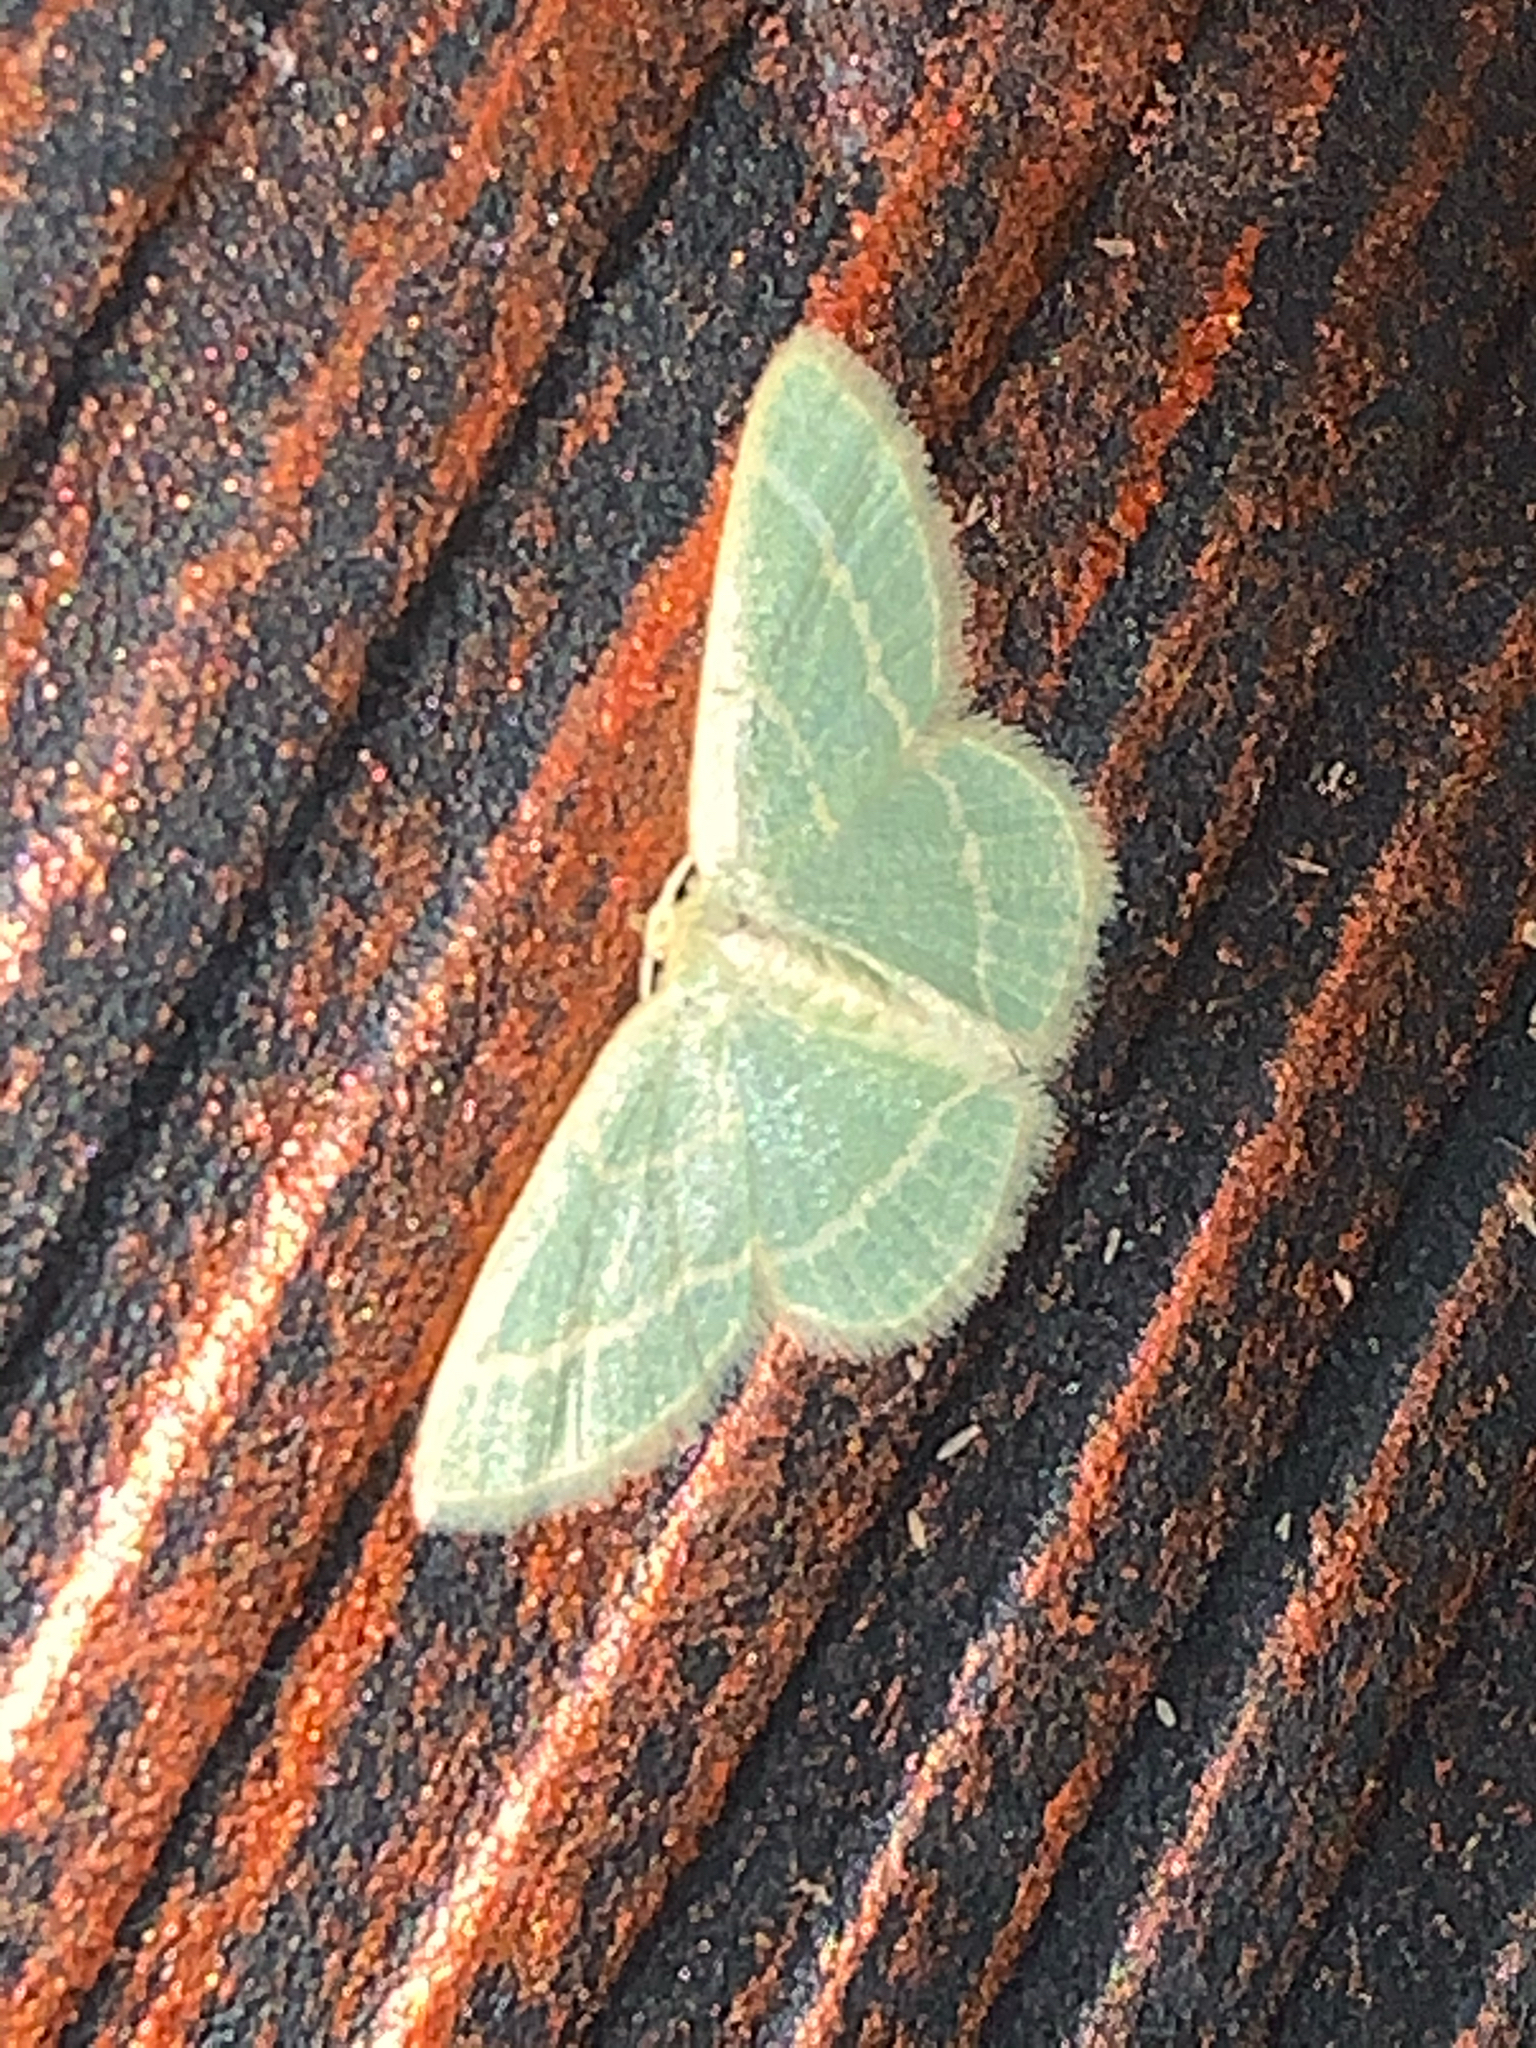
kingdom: Animalia
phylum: Arthropoda
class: Insecta
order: Lepidoptera
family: Geometridae
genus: Chlorochlamys
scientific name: Chlorochlamys chloroleucaria
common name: Blackberry looper
